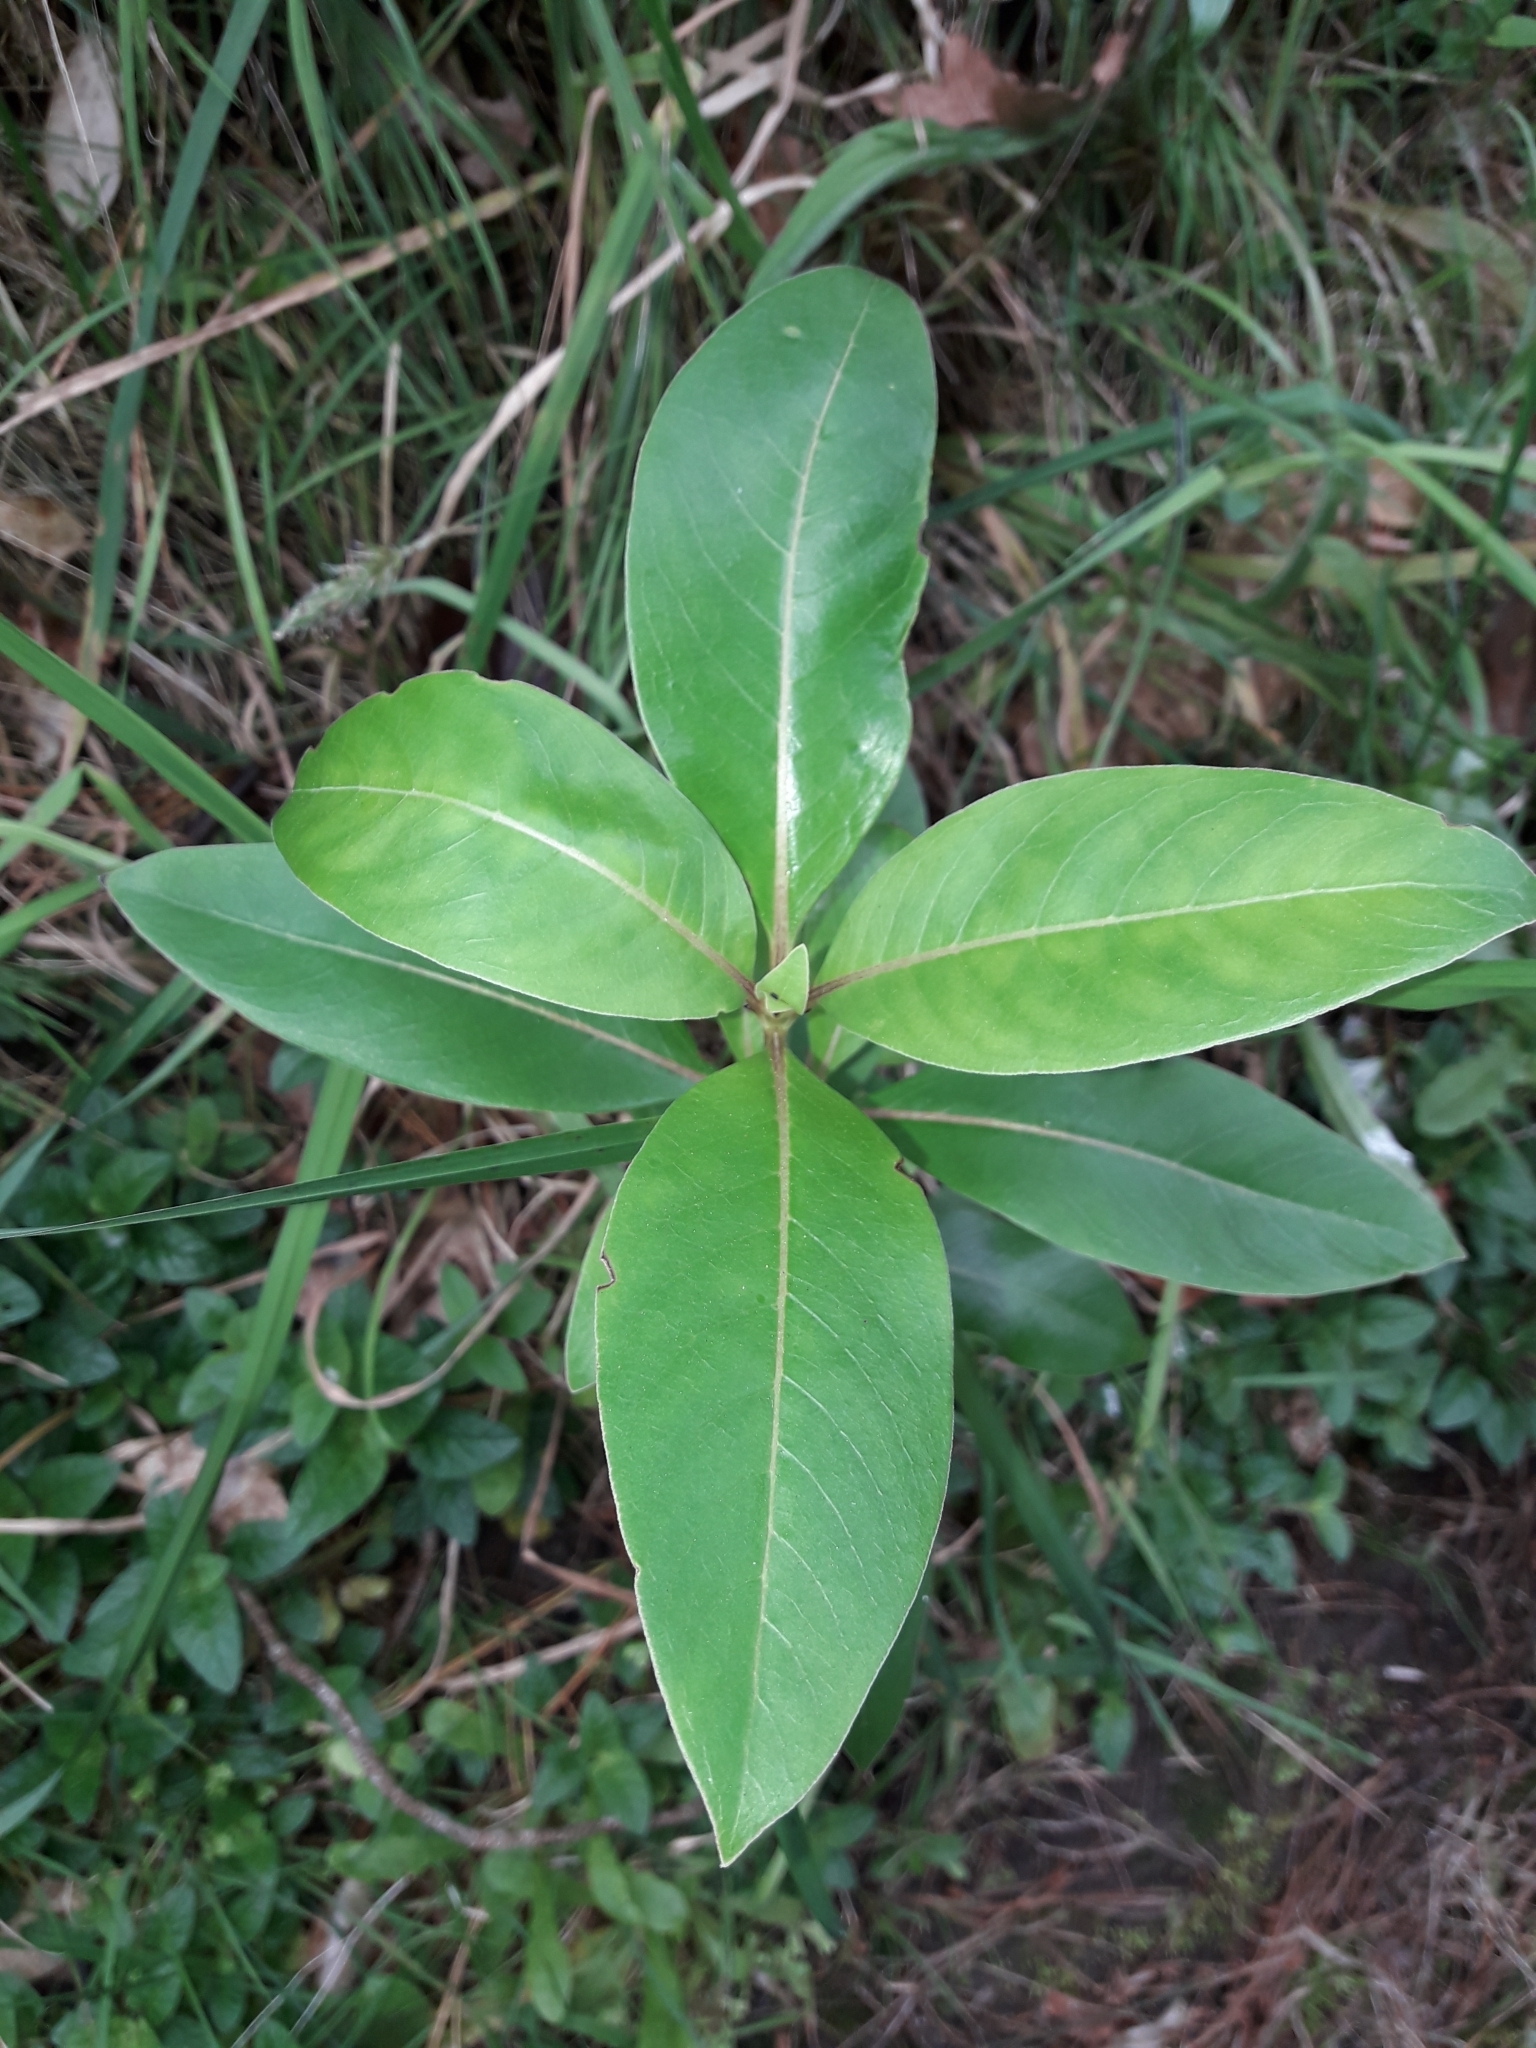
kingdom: Plantae
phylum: Tracheophyta
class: Magnoliopsida
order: Gentianales
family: Rubiaceae
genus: Coprosma
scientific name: Coprosma robusta
